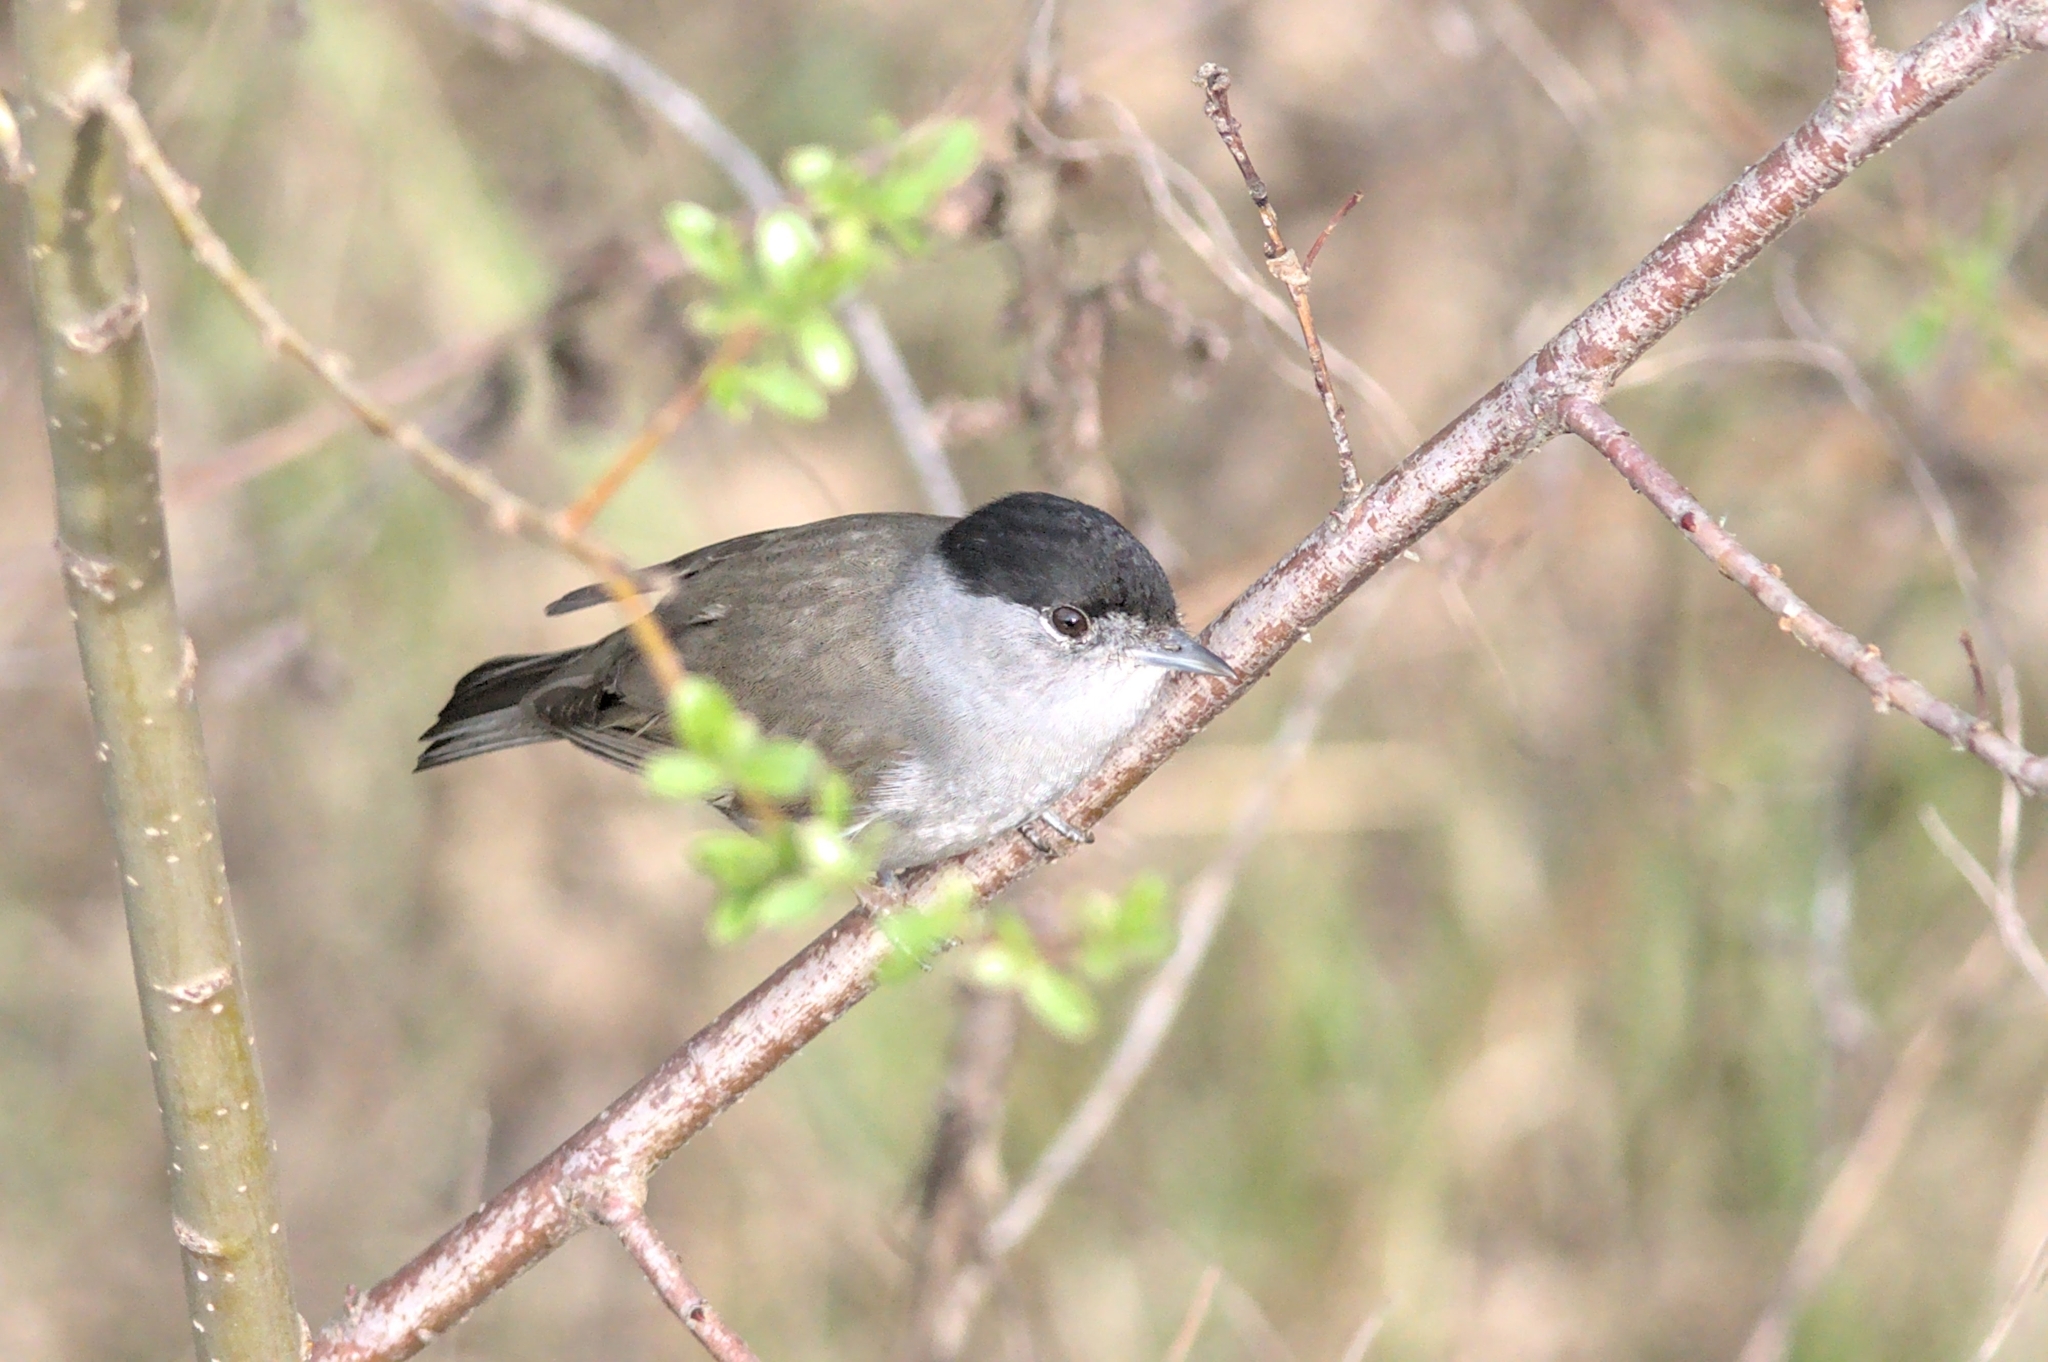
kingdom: Animalia
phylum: Chordata
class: Aves
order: Passeriformes
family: Sylviidae
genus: Sylvia
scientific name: Sylvia atricapilla
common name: Eurasian blackcap
